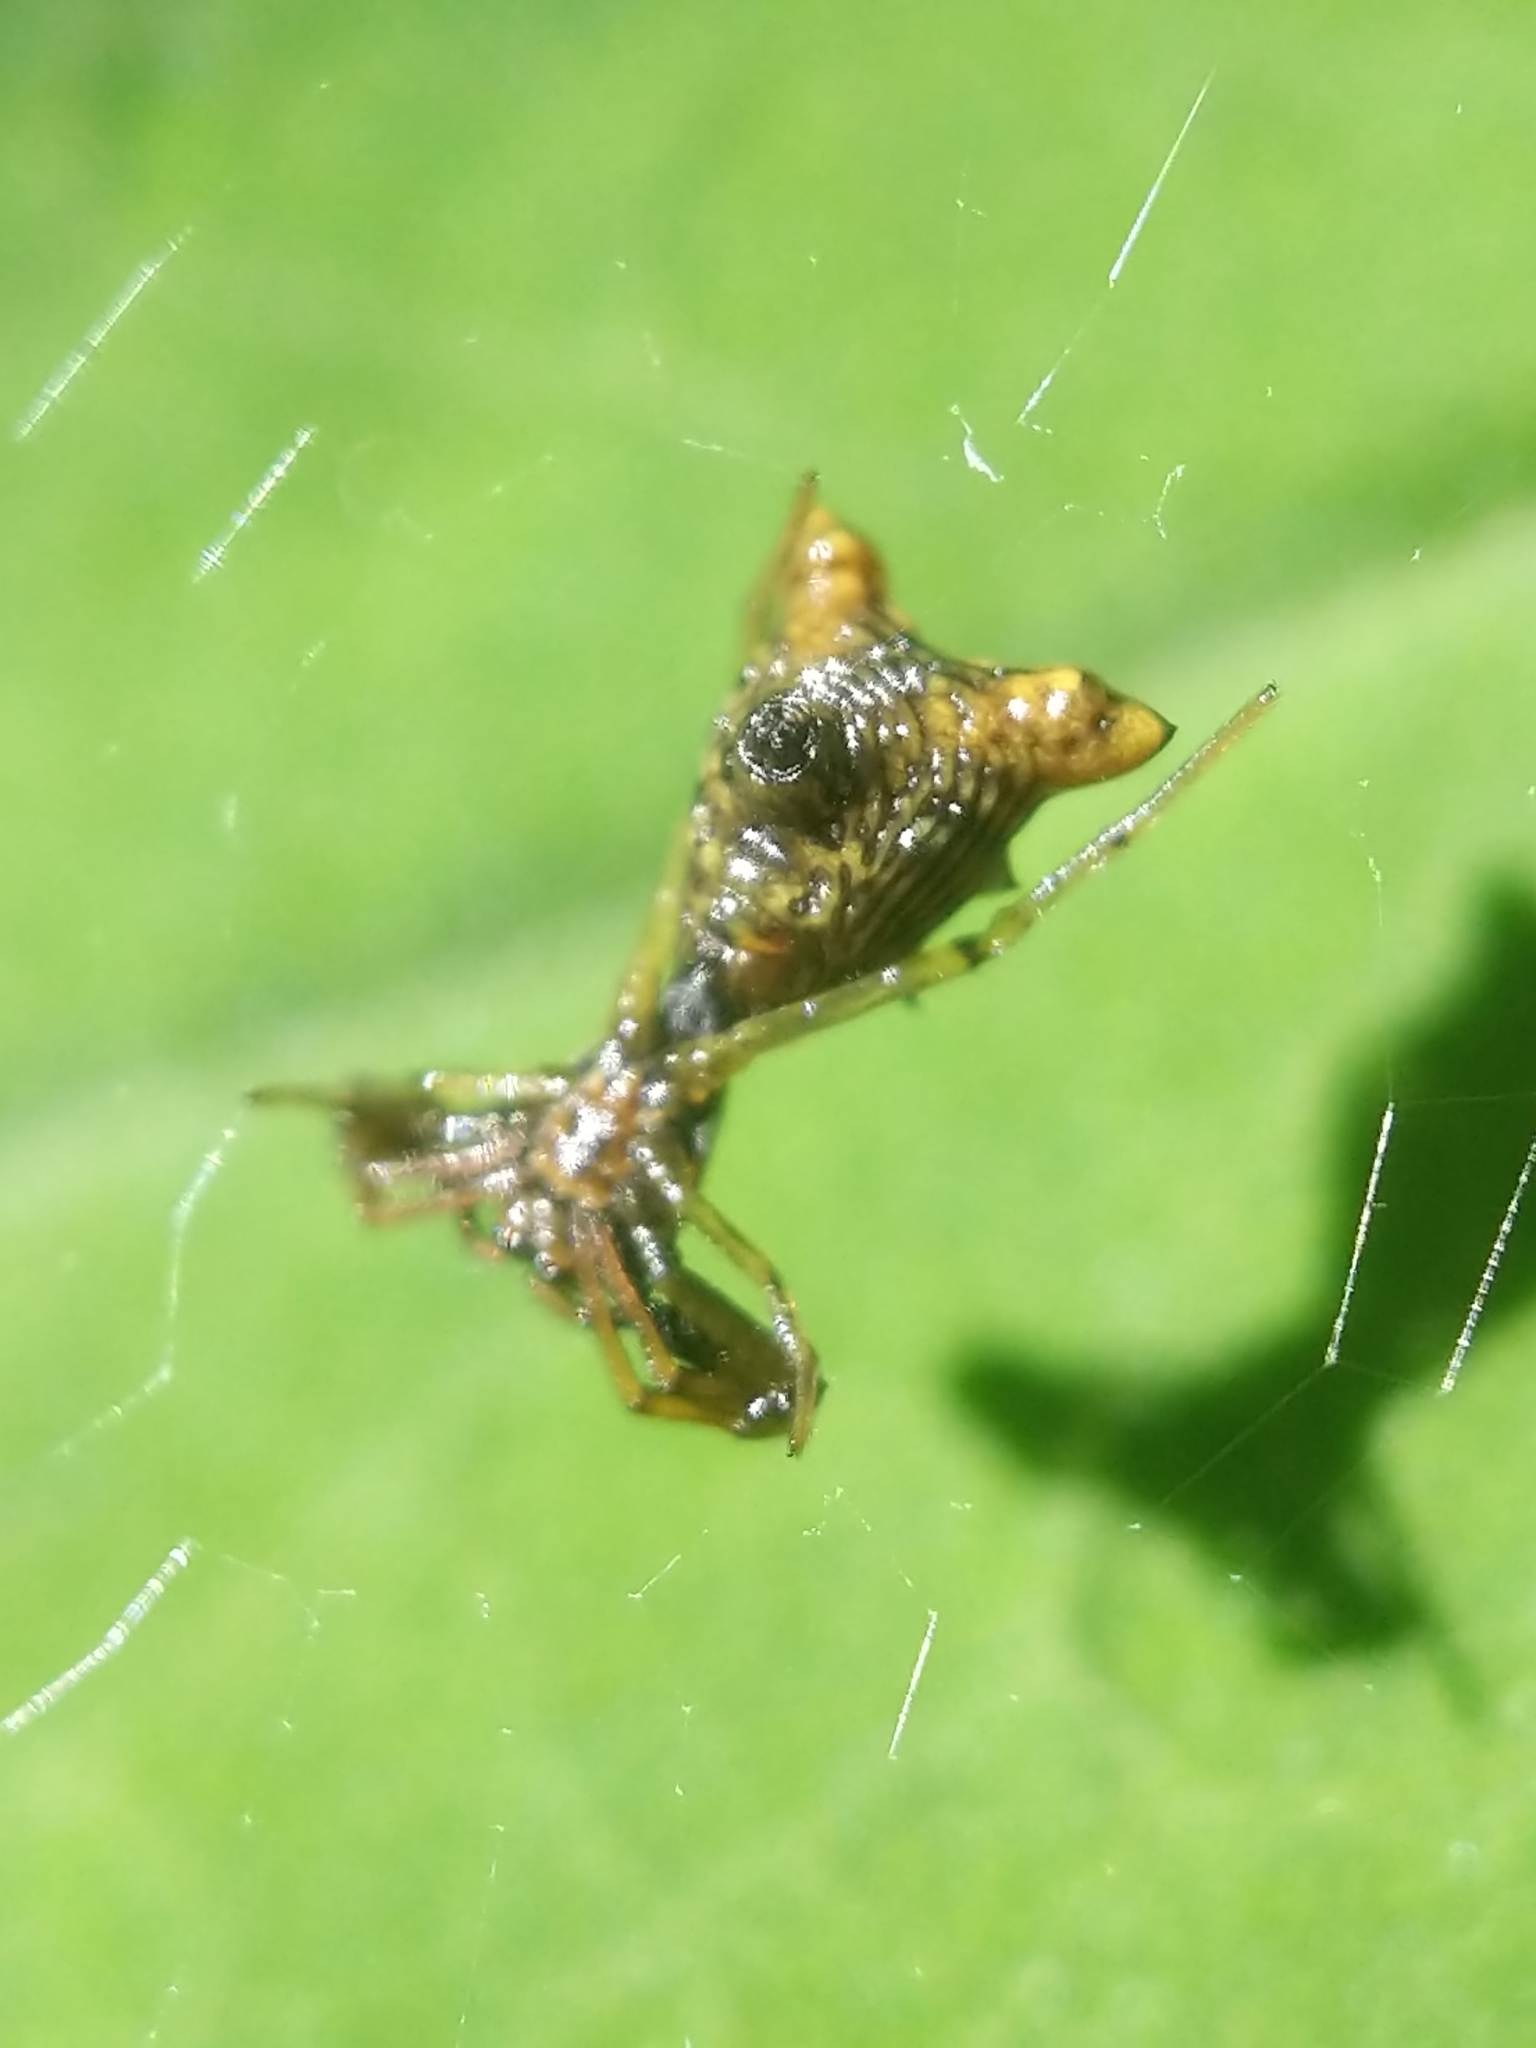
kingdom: Animalia
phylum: Arthropoda
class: Arachnida
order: Araneae
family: Araneidae
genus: Micrathena
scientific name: Micrathena sagittata
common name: Orb weavers
